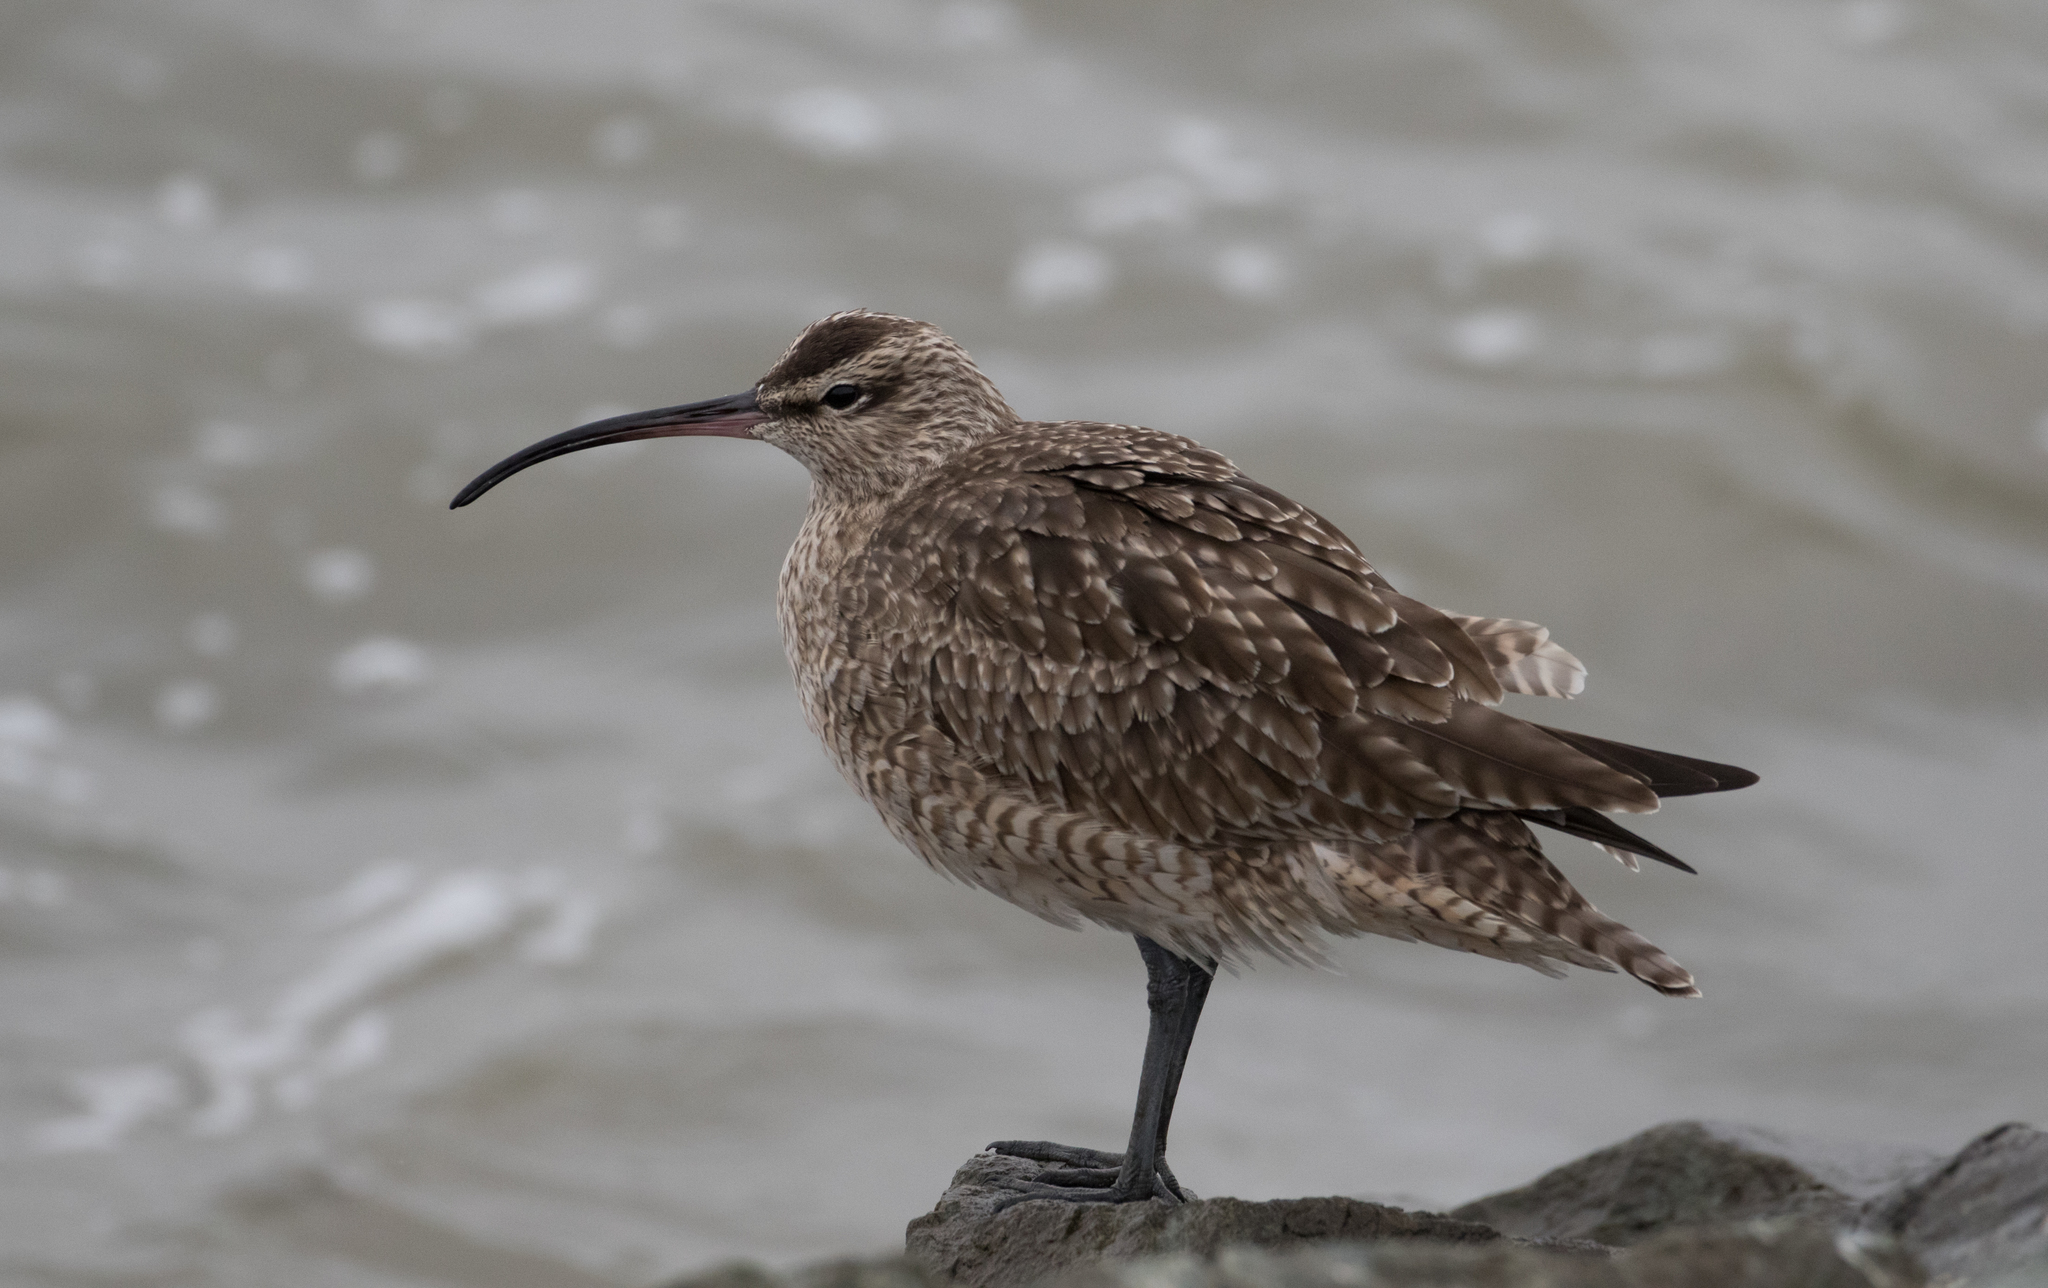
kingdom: Animalia
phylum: Chordata
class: Aves
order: Charadriiformes
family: Scolopacidae
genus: Numenius
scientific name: Numenius phaeopus
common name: Whimbrel
